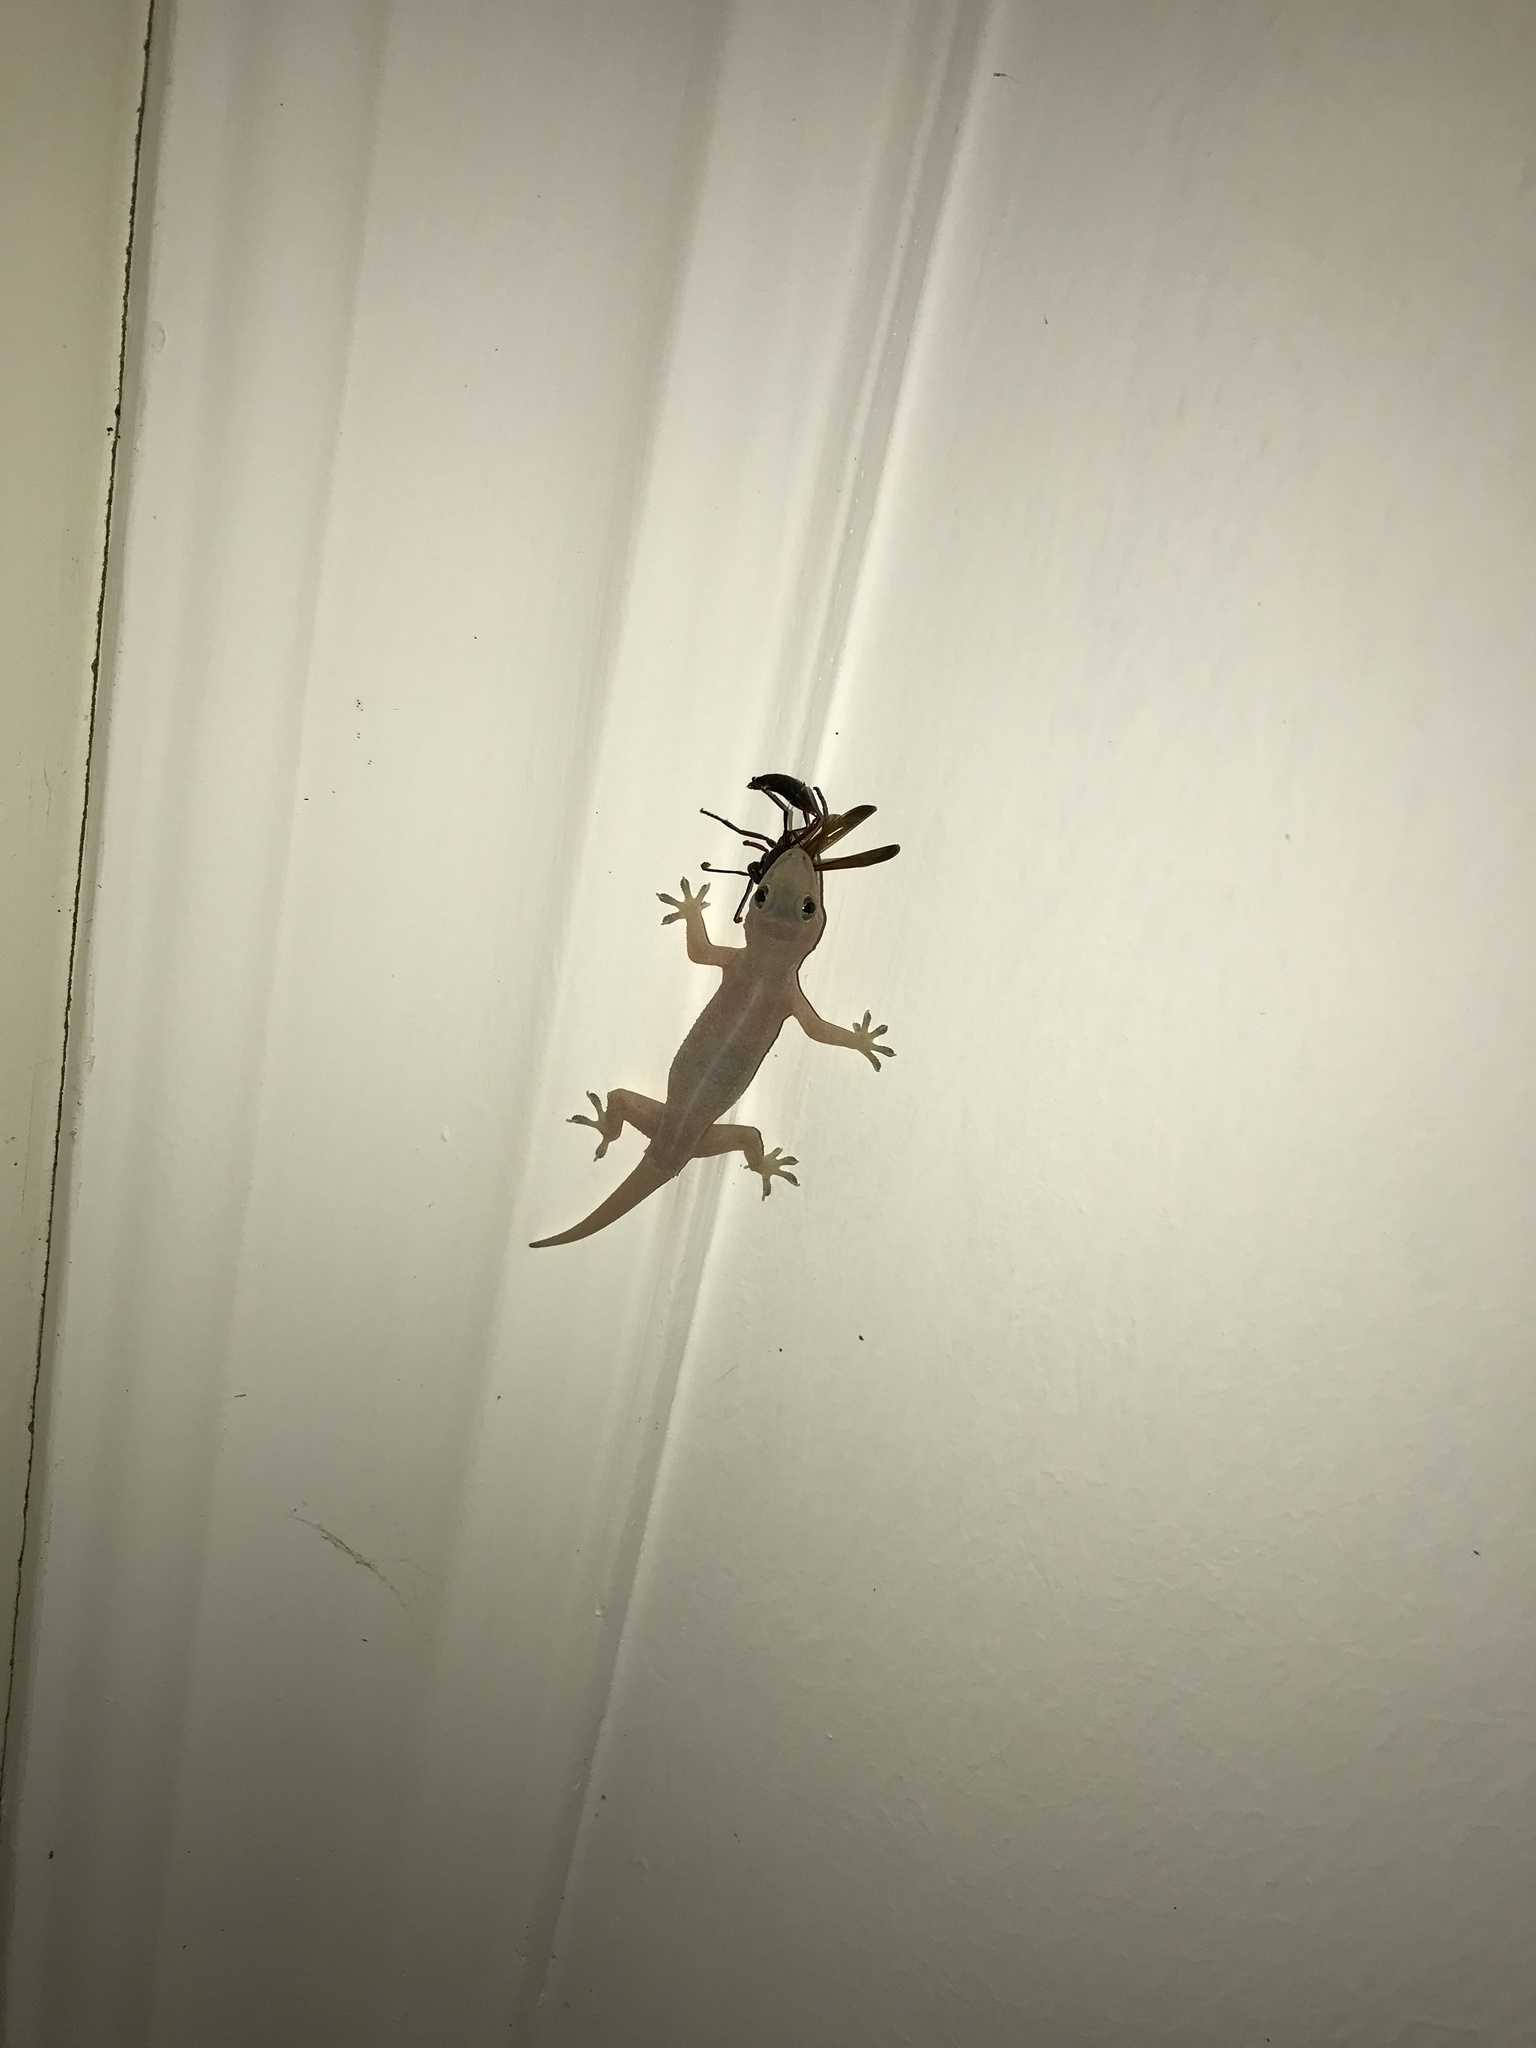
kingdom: Animalia
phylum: Chordata
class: Squamata
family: Gekkonidae
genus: Hemidactylus
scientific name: Hemidactylus mabouia
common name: House gecko
